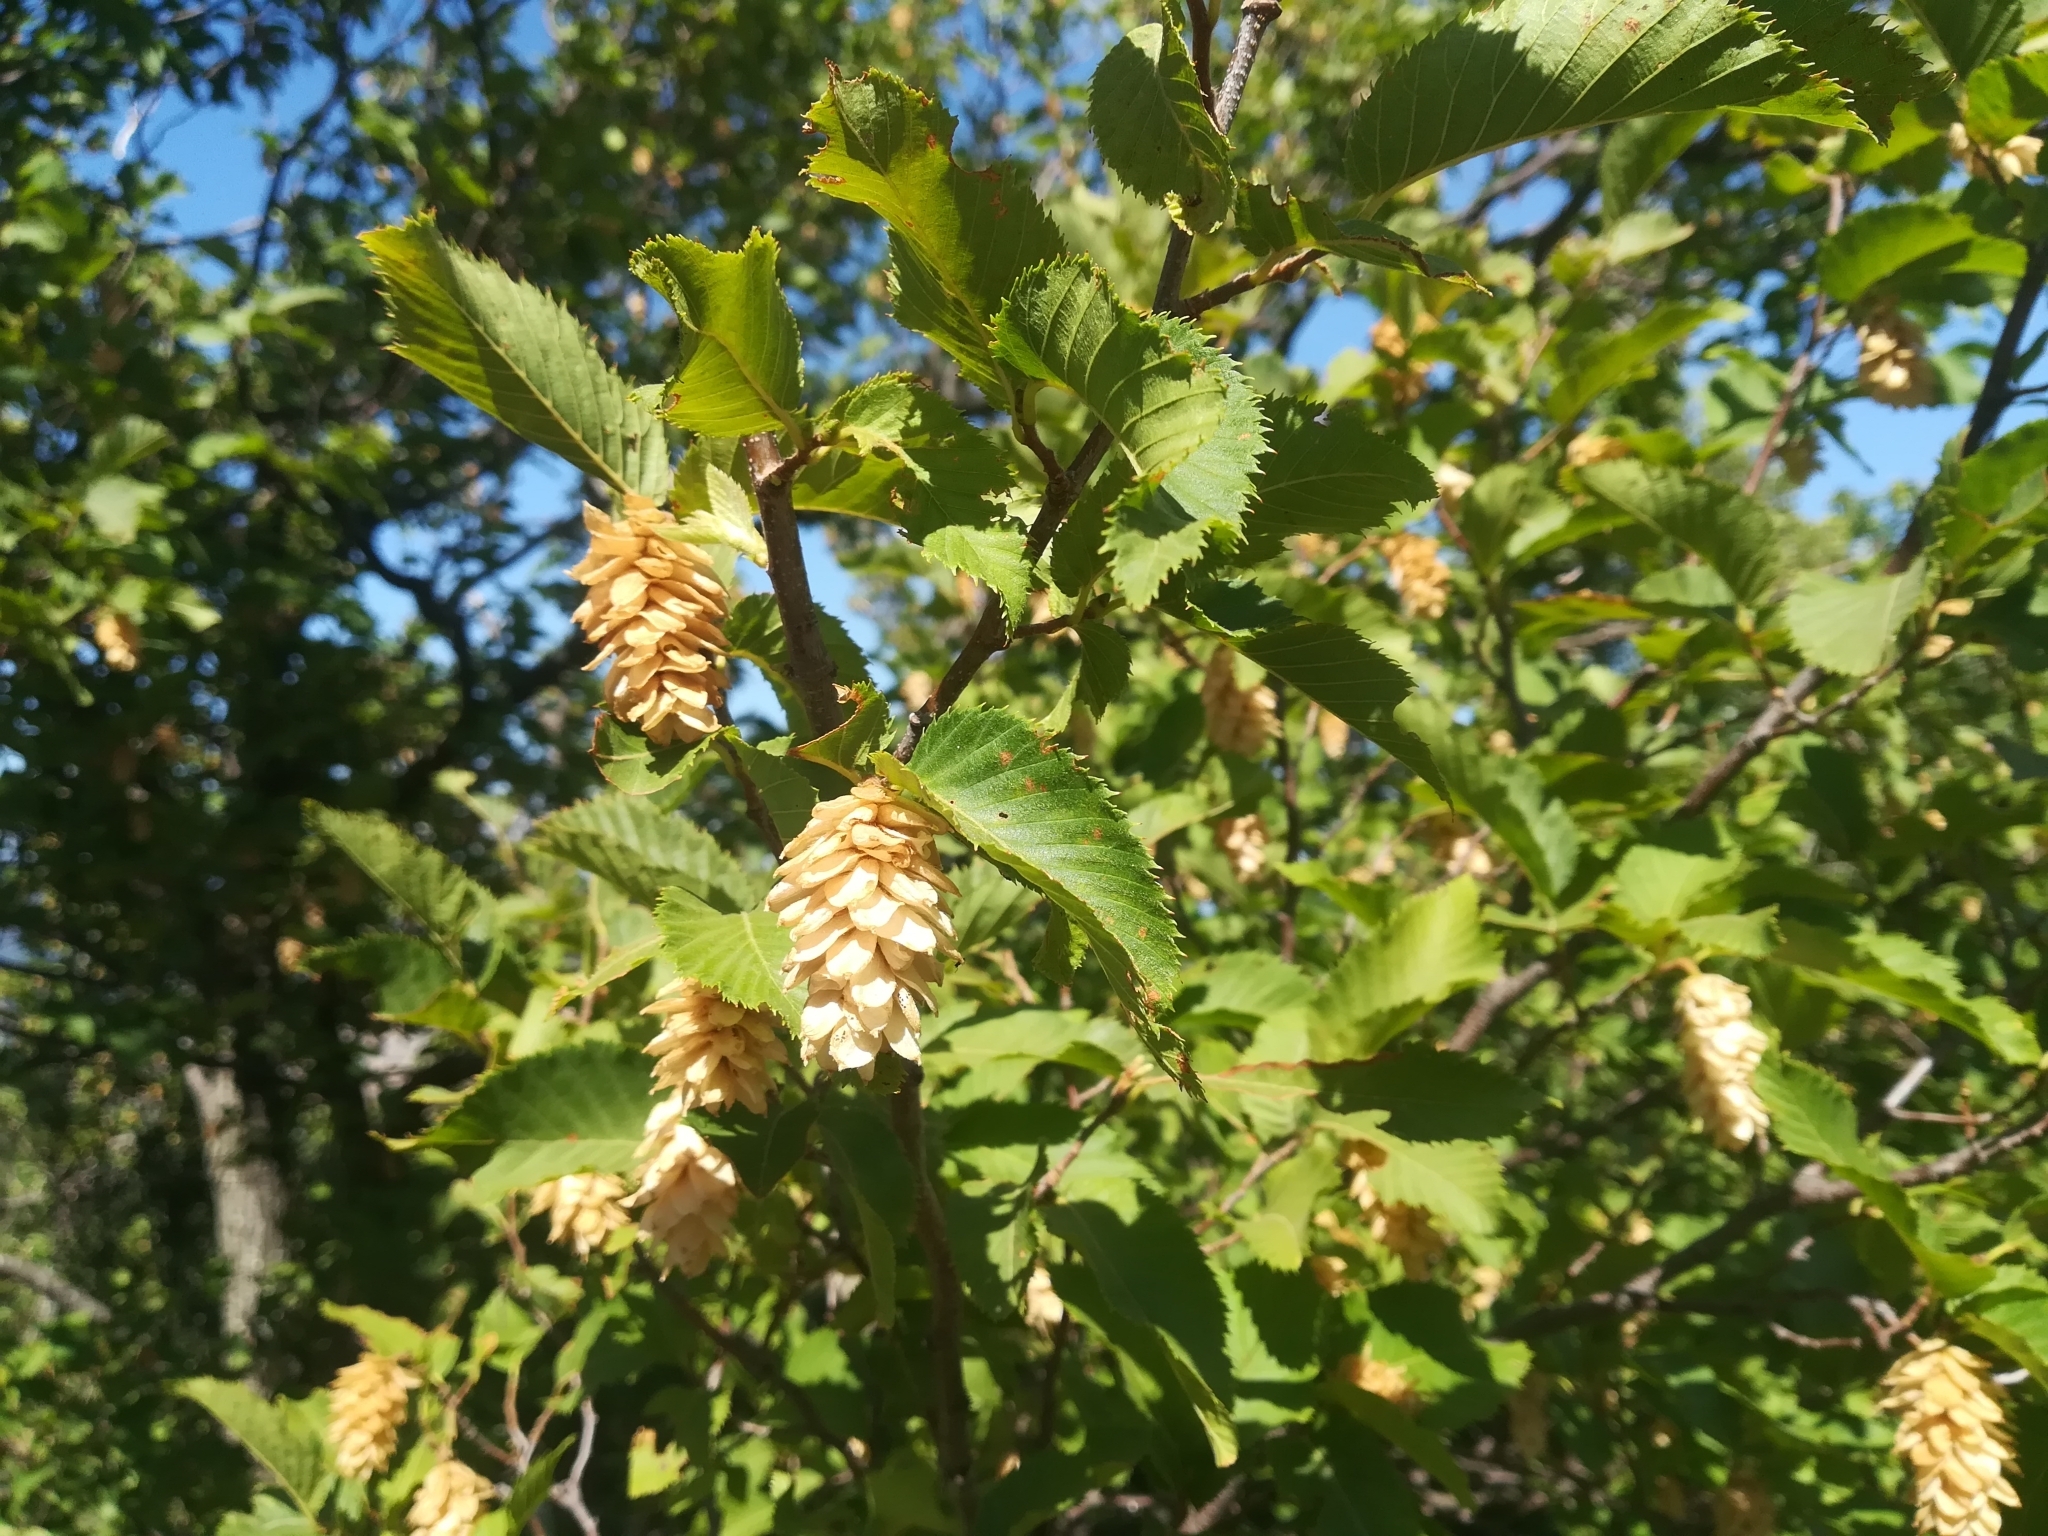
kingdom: Plantae
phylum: Tracheophyta
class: Magnoliopsida
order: Fagales
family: Betulaceae
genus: Ostrya
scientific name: Ostrya carpinifolia
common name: European hop-hornbeam
